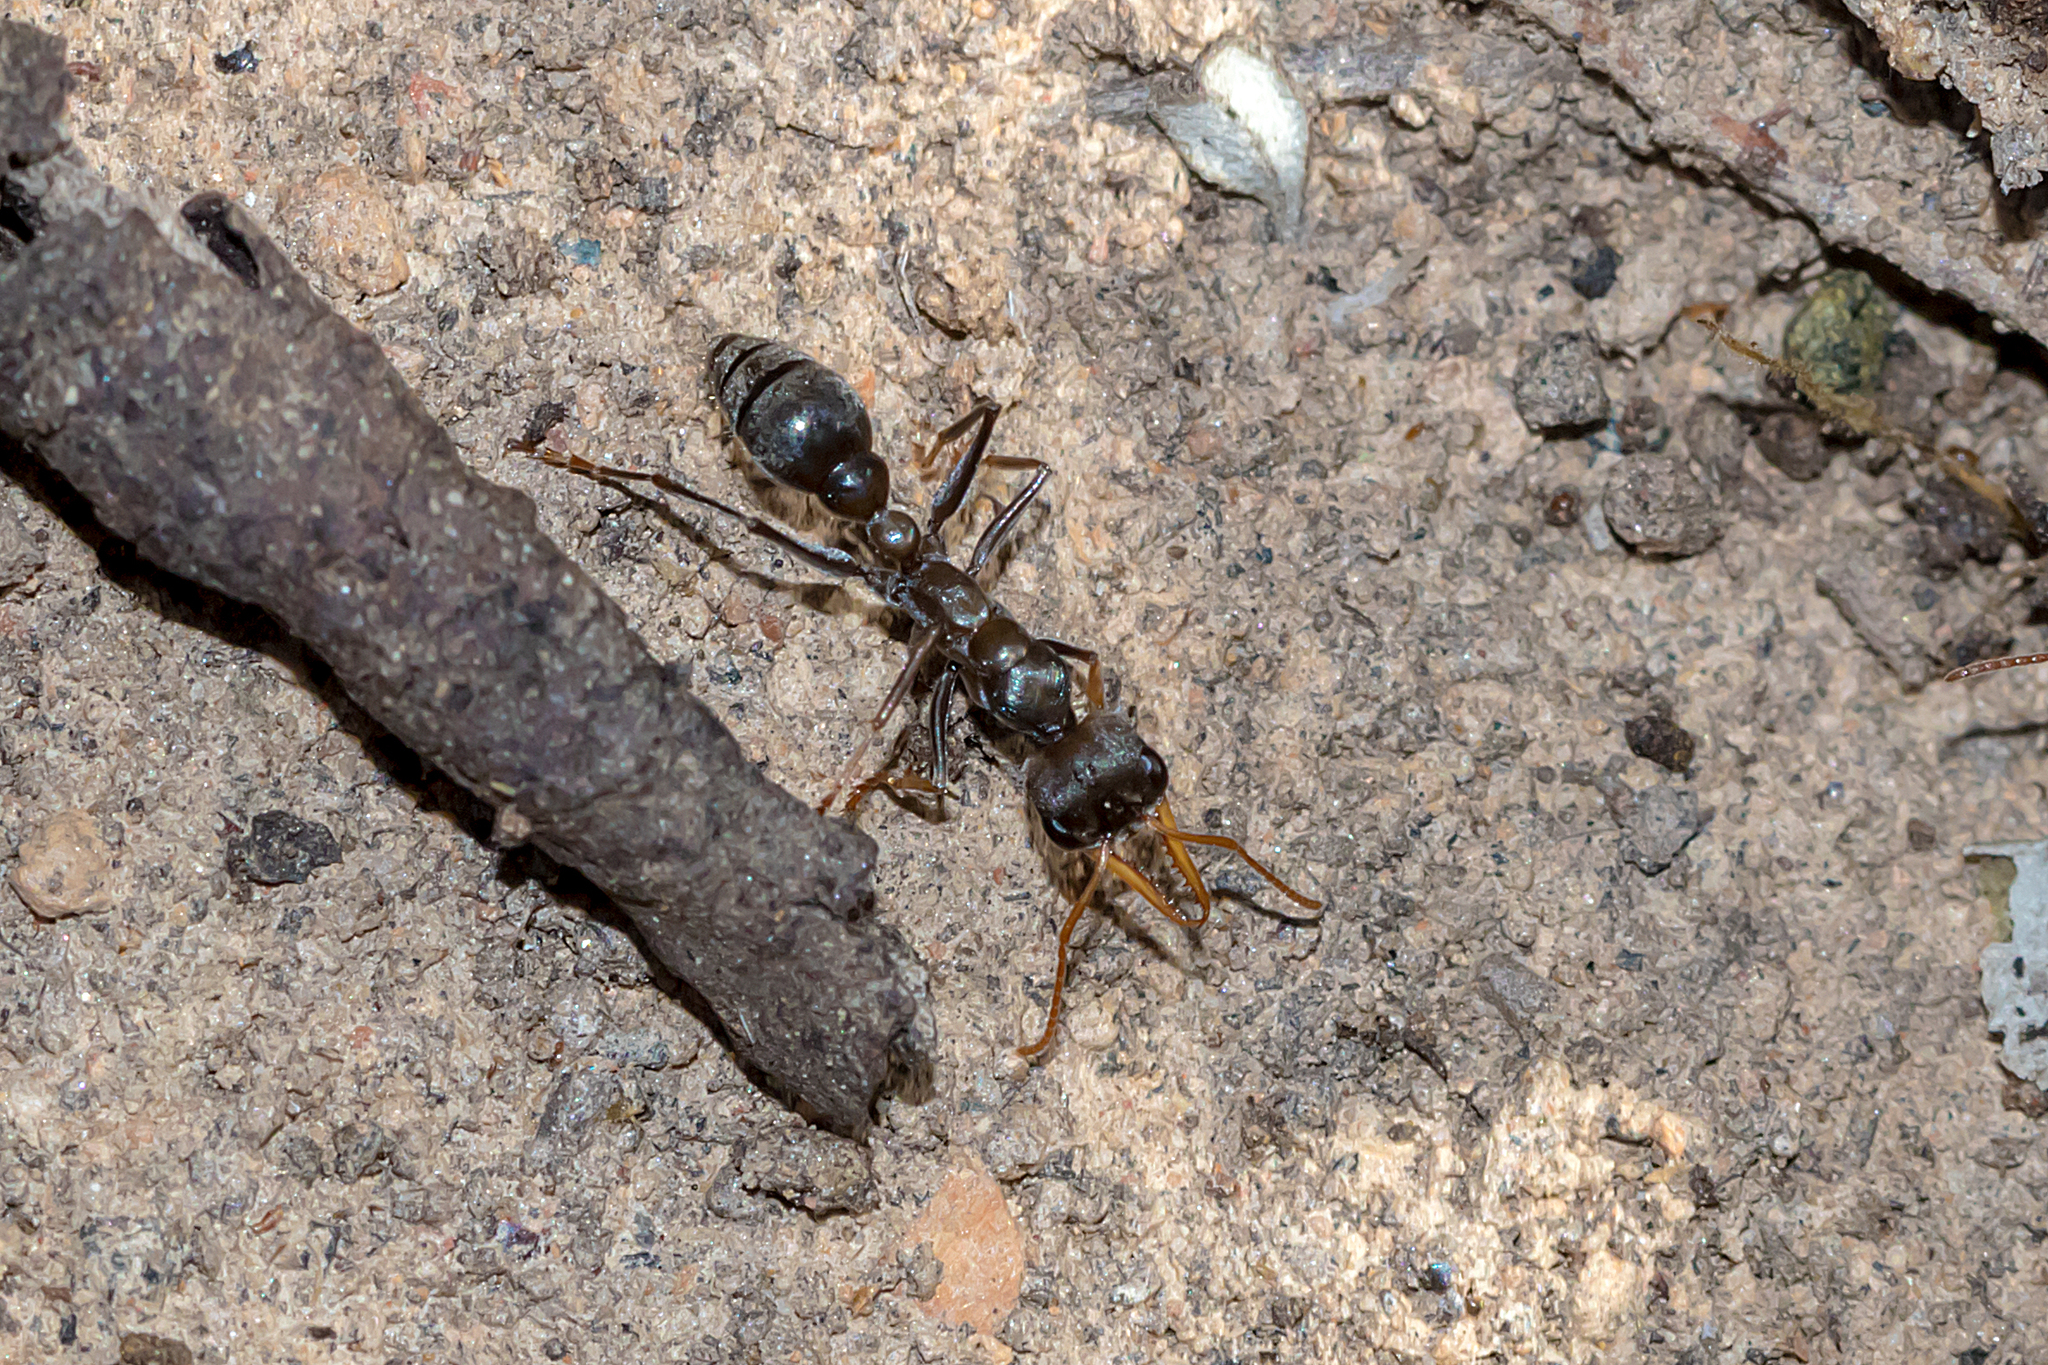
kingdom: Animalia
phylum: Arthropoda
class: Insecta
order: Hymenoptera
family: Formicidae
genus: Myrmecia
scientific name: Myrmecia pilosula
